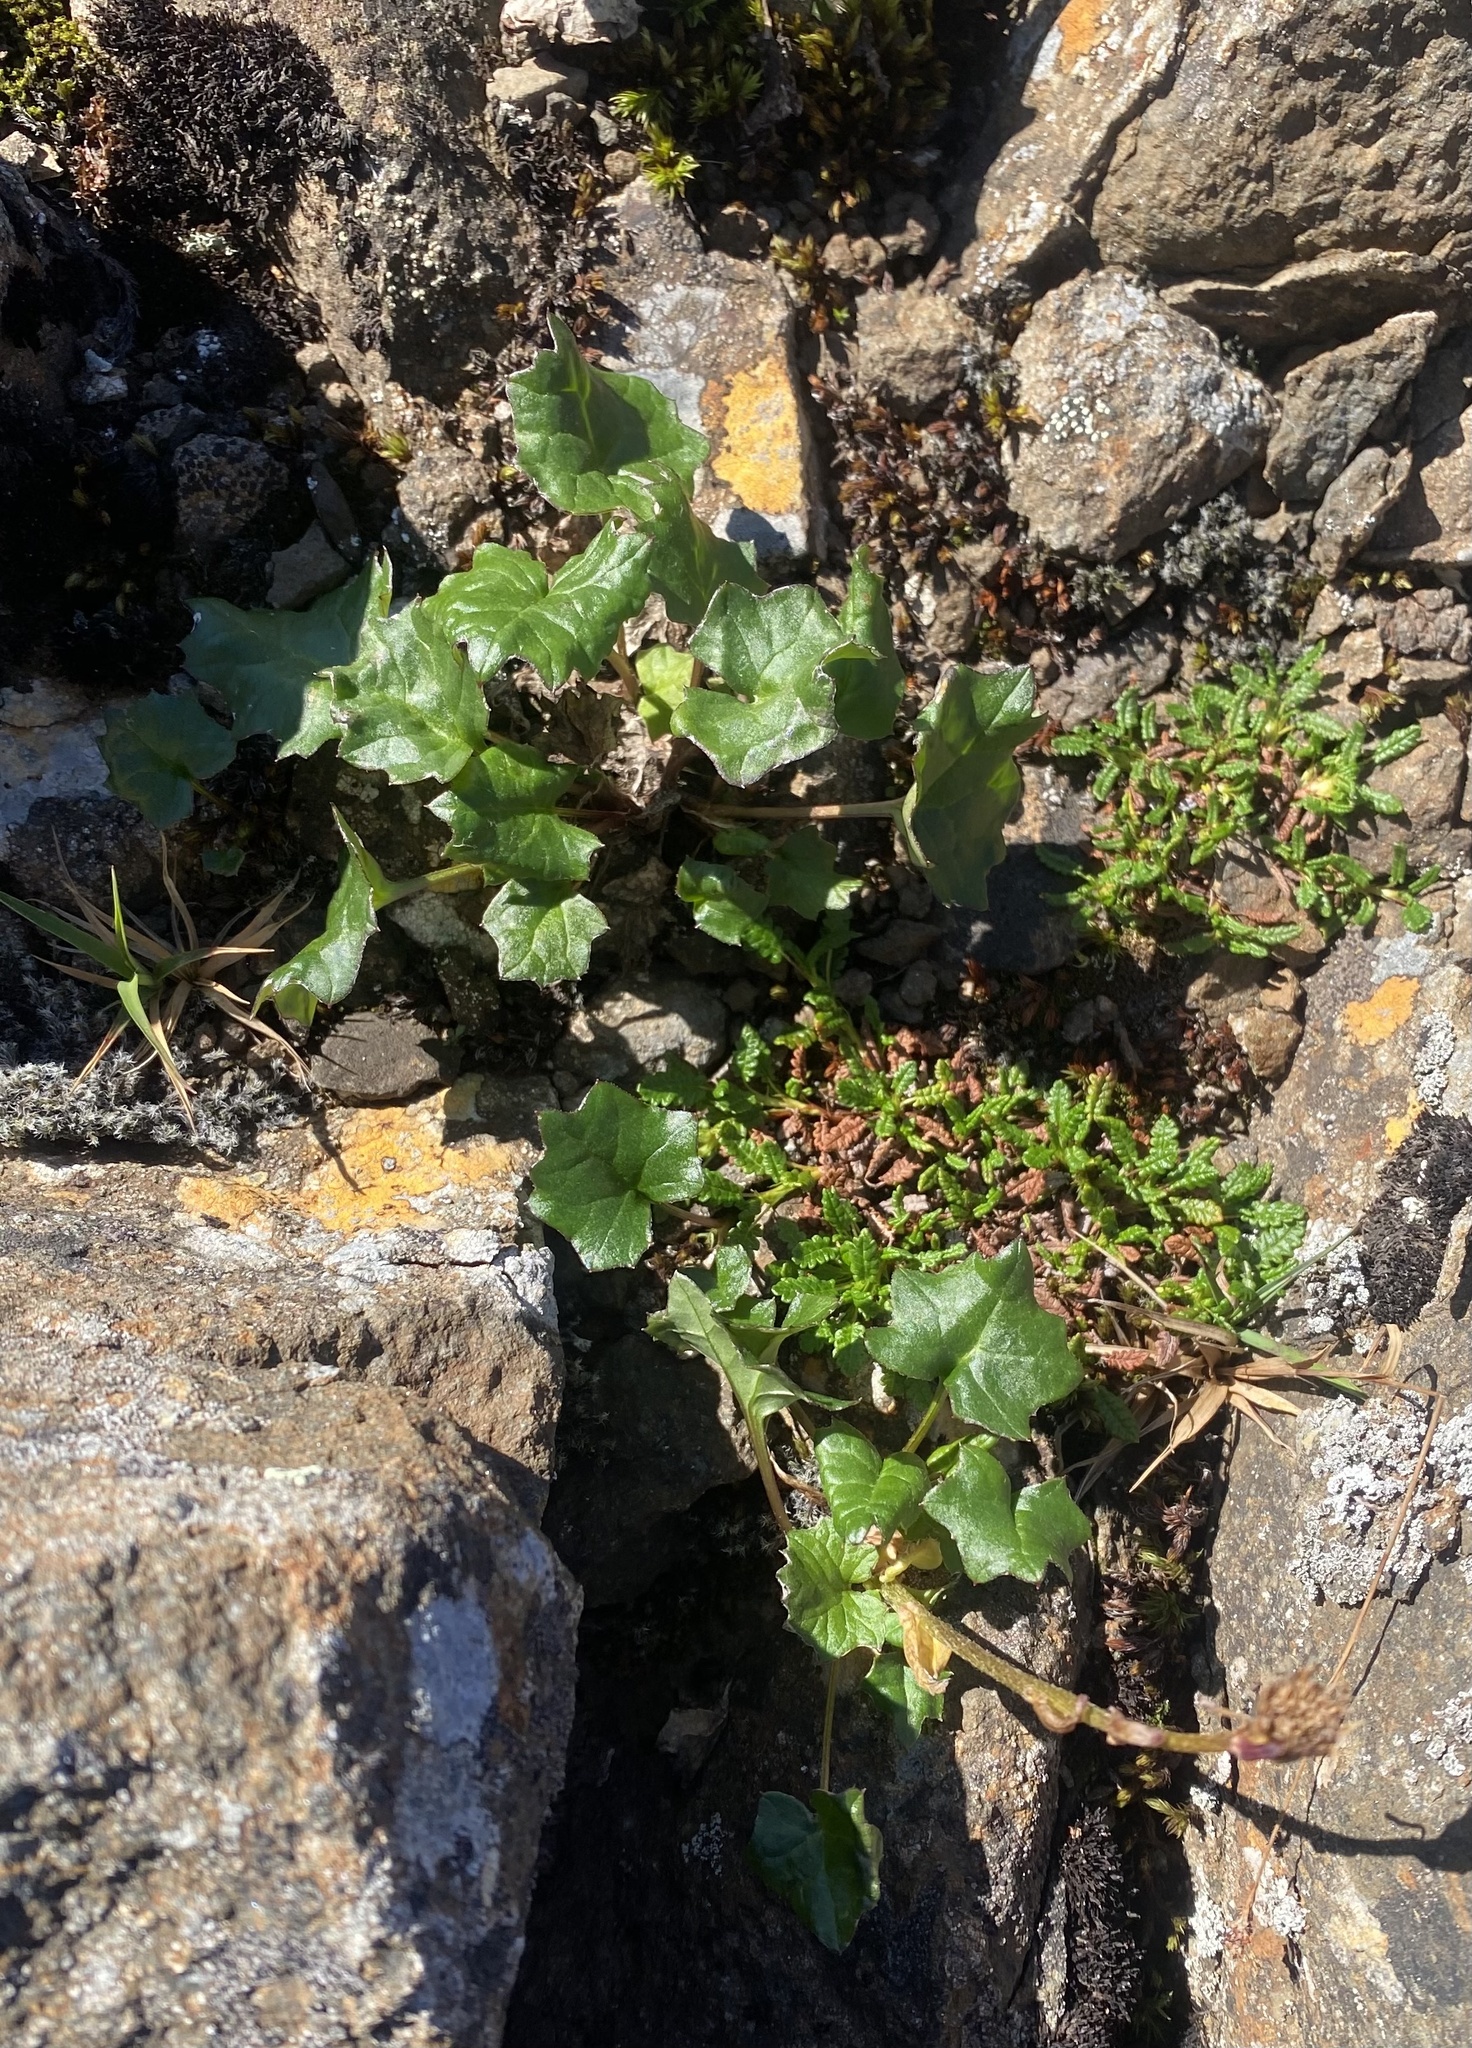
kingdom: Plantae
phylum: Tracheophyta
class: Magnoliopsida
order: Asterales
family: Asteraceae
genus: Endocellion
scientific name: Endocellion glaciale
